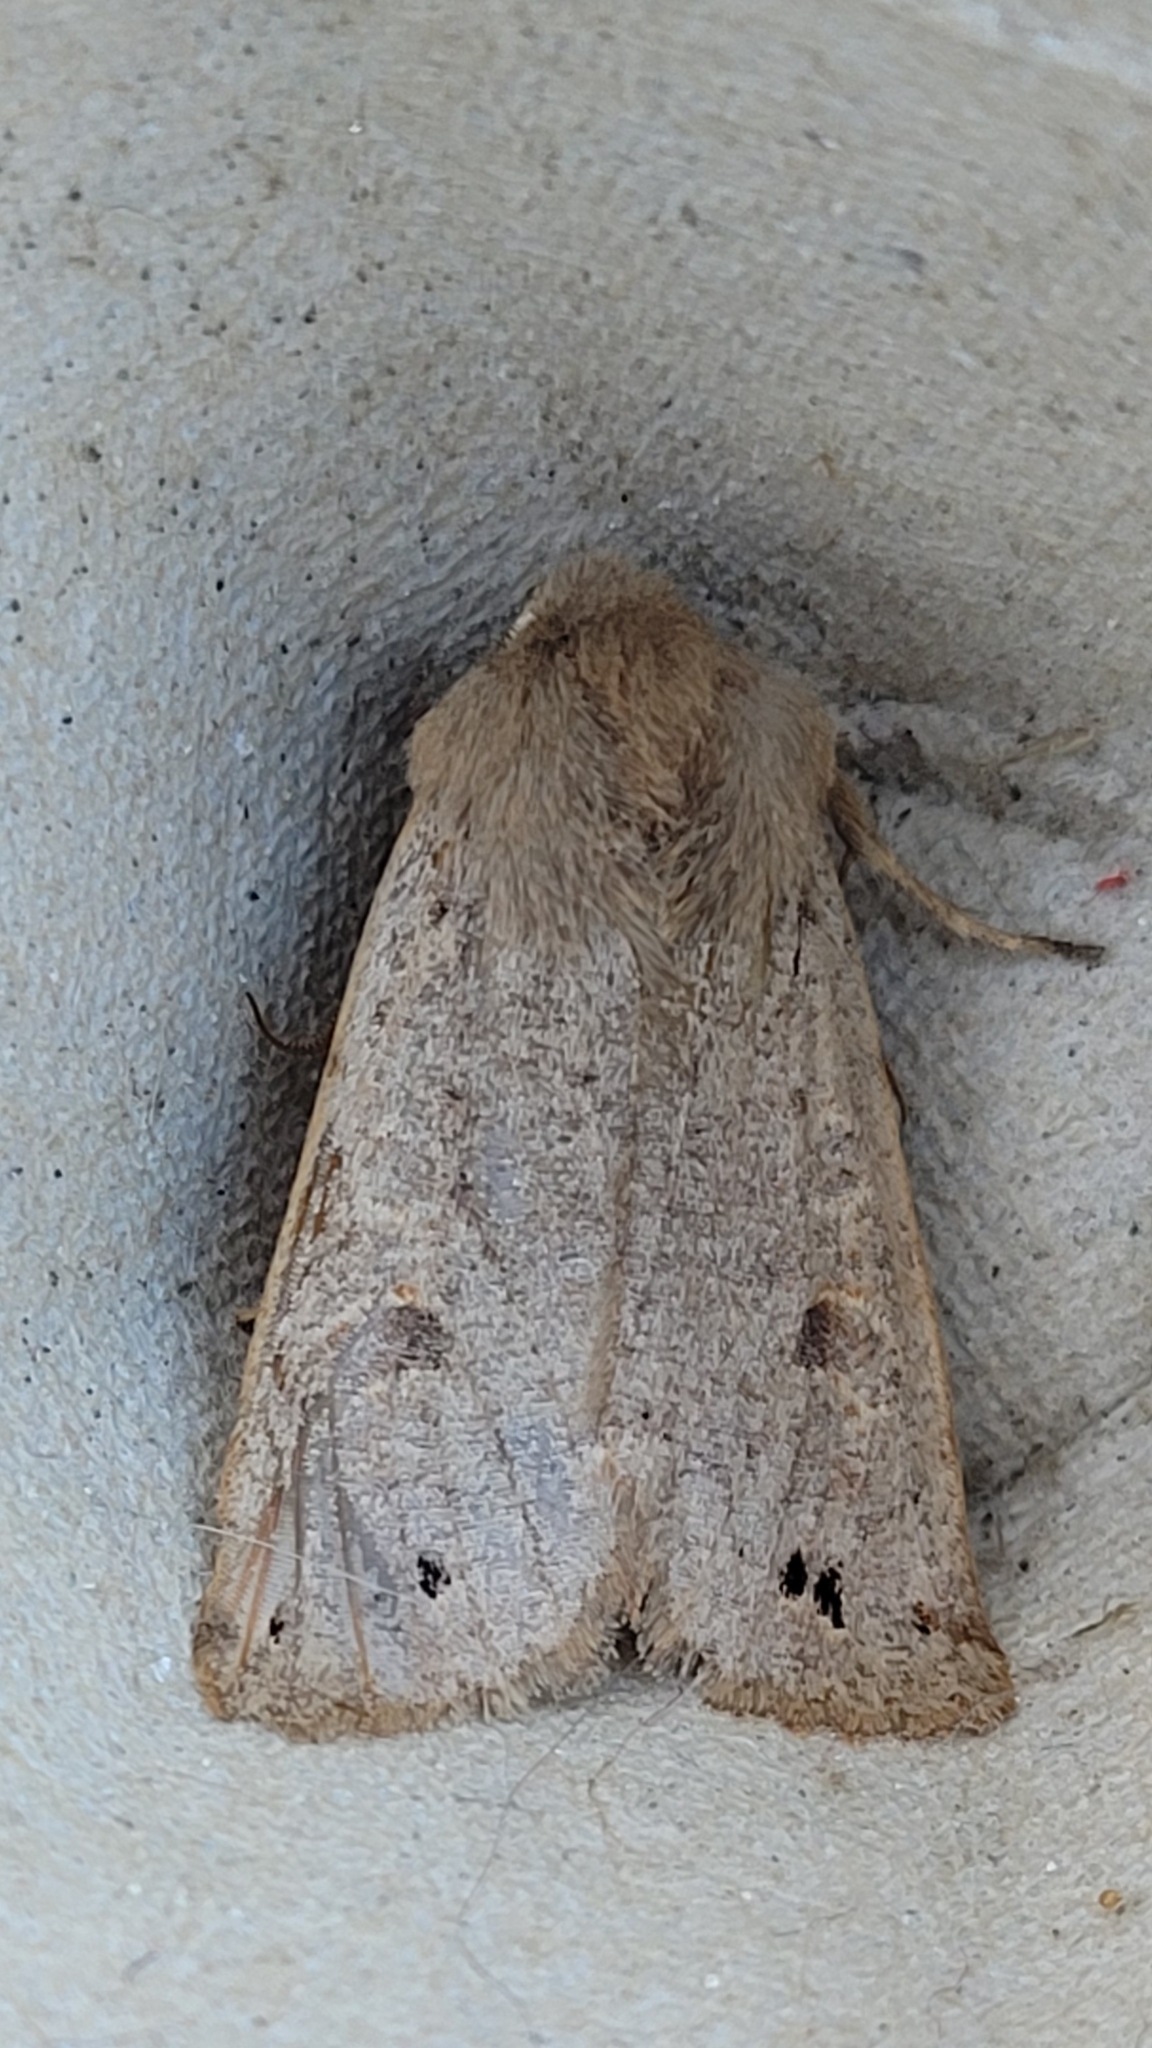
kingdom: Animalia
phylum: Arthropoda
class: Insecta
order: Lepidoptera
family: Noctuidae
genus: Anorthoa
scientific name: Anorthoa munda
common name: Twin-spotted quaker
